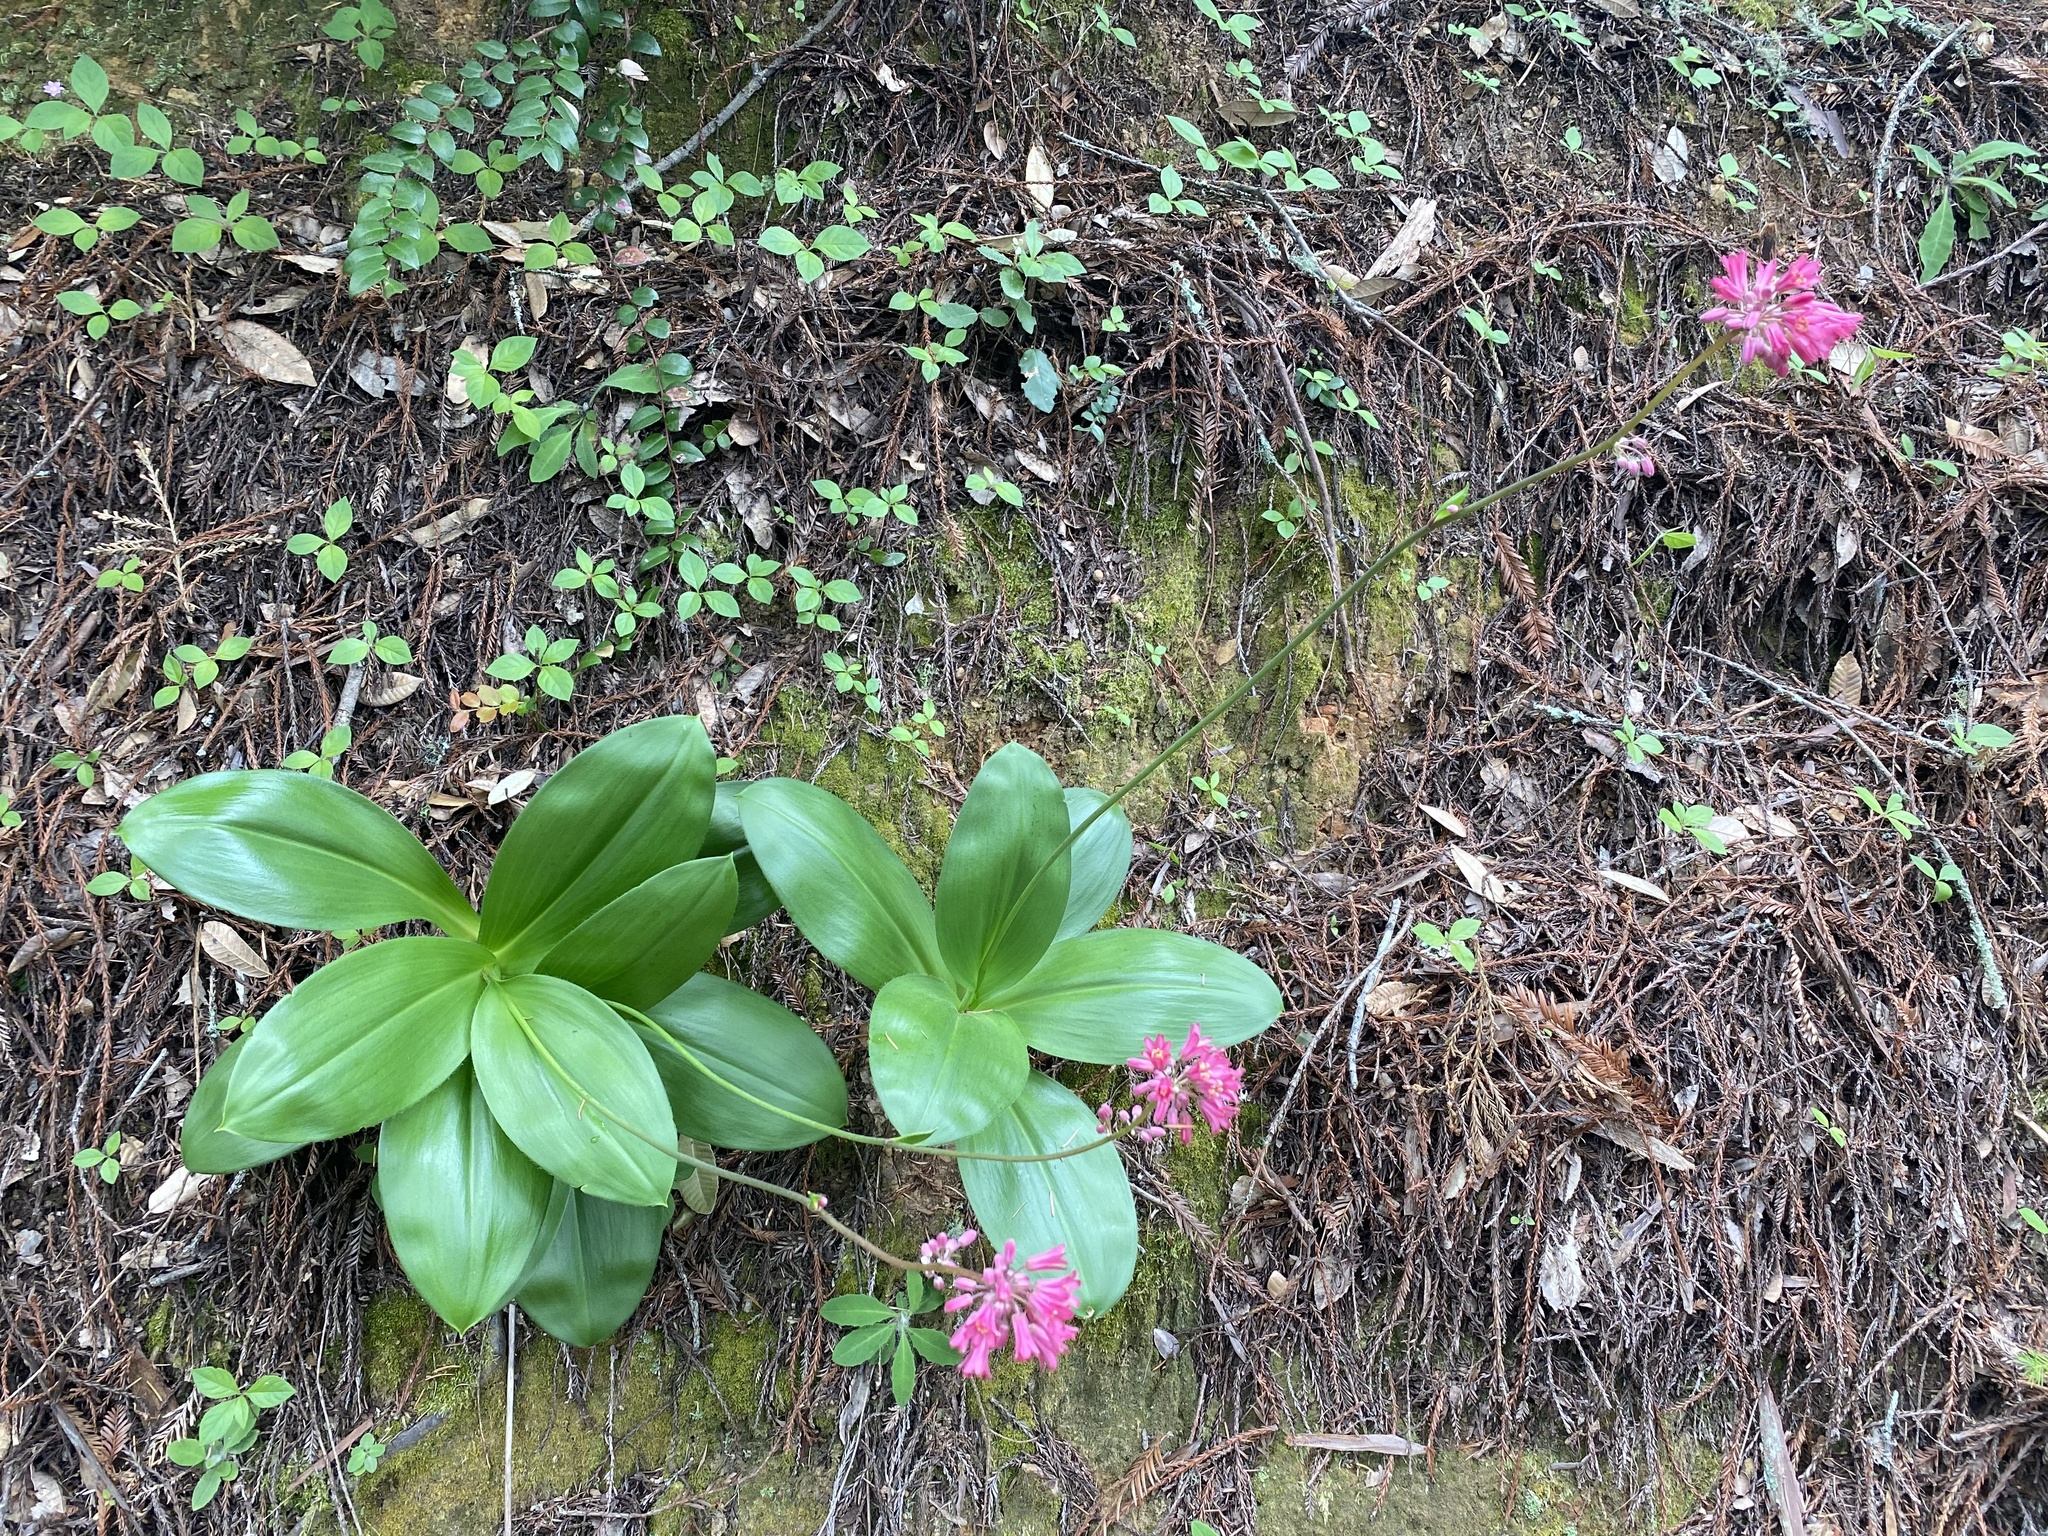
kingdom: Plantae
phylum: Tracheophyta
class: Liliopsida
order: Liliales
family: Liliaceae
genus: Clintonia
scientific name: Clintonia andrewsiana
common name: Red clintonia
